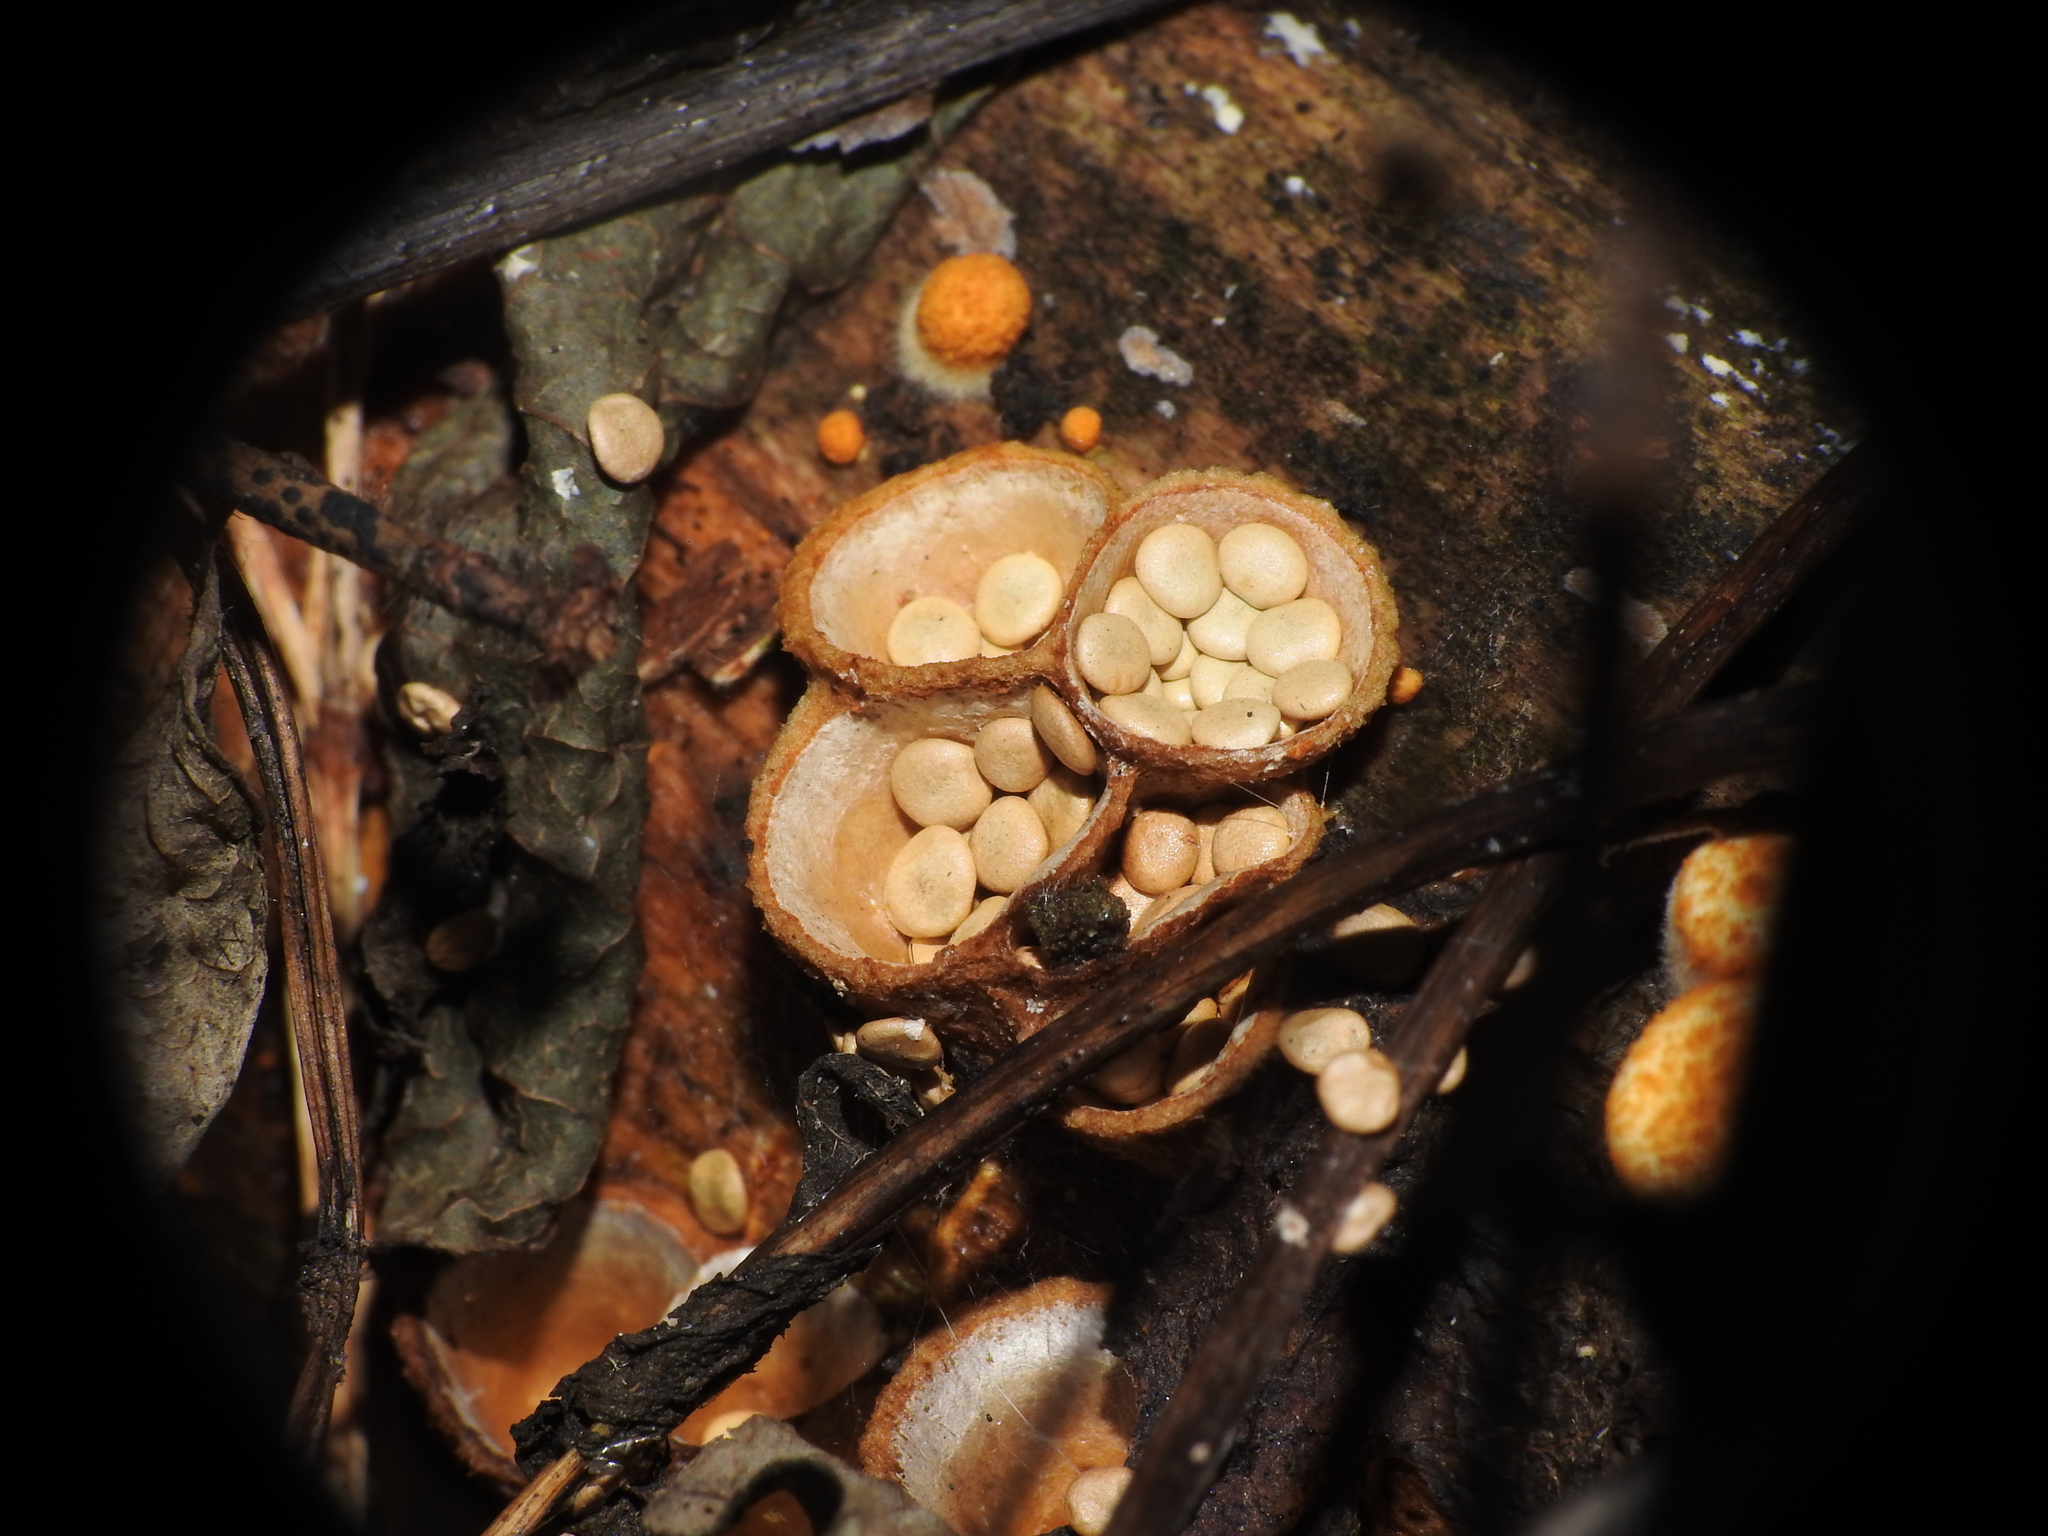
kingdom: Fungi
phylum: Basidiomycota
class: Agaricomycetes
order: Agaricales
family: Nidulariaceae
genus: Crucibulum
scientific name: Crucibulum laeve
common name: Common bird's nest
